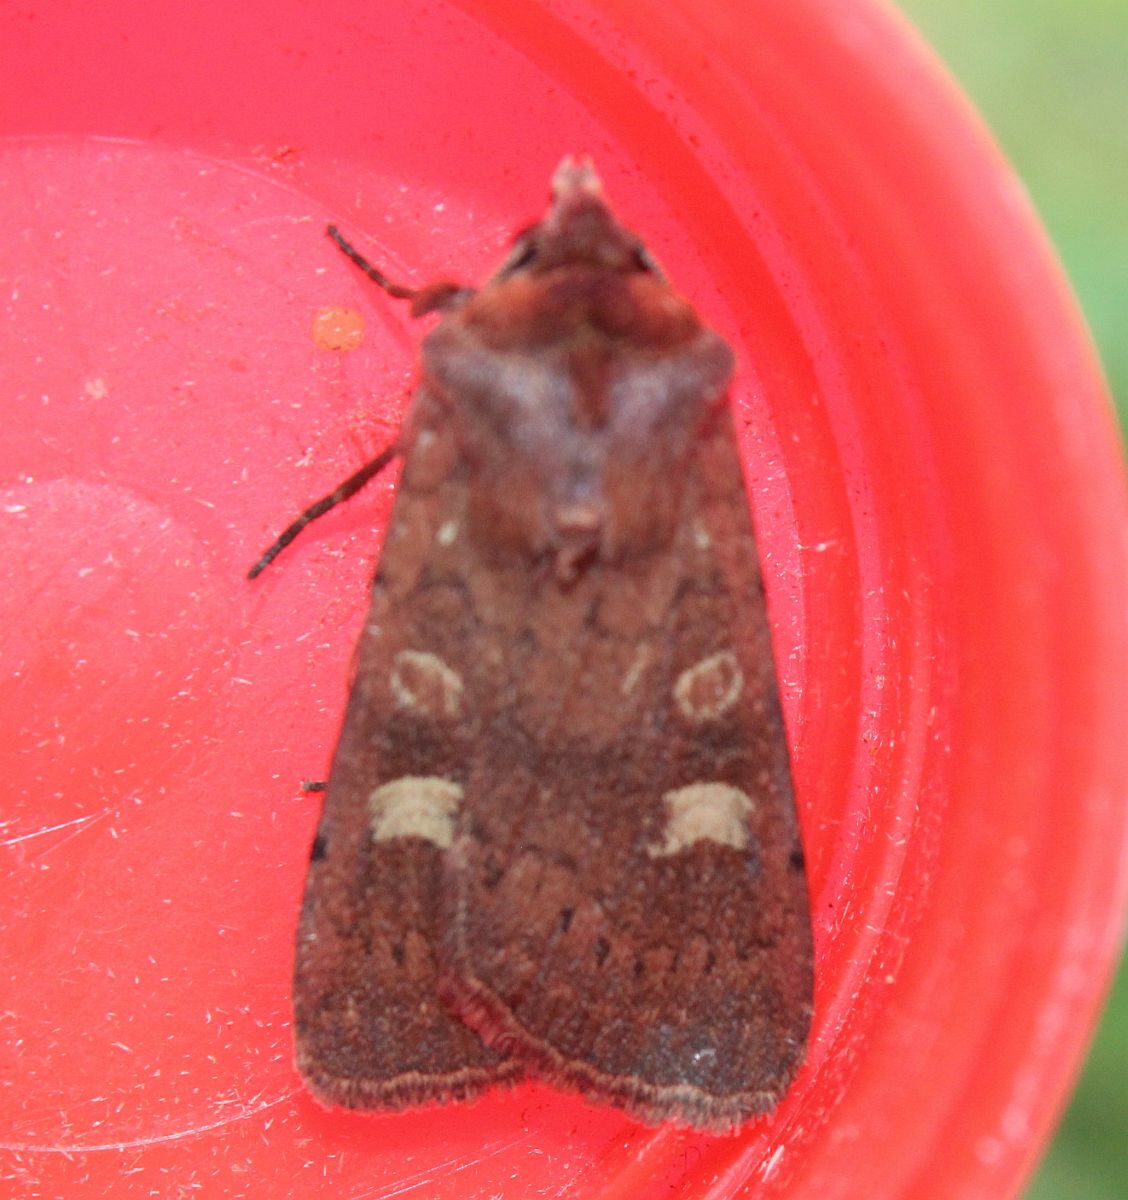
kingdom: Animalia
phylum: Arthropoda
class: Insecta
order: Lepidoptera
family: Noctuidae
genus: Xestia
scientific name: Xestia xanthographa
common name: Square-spot rustic
